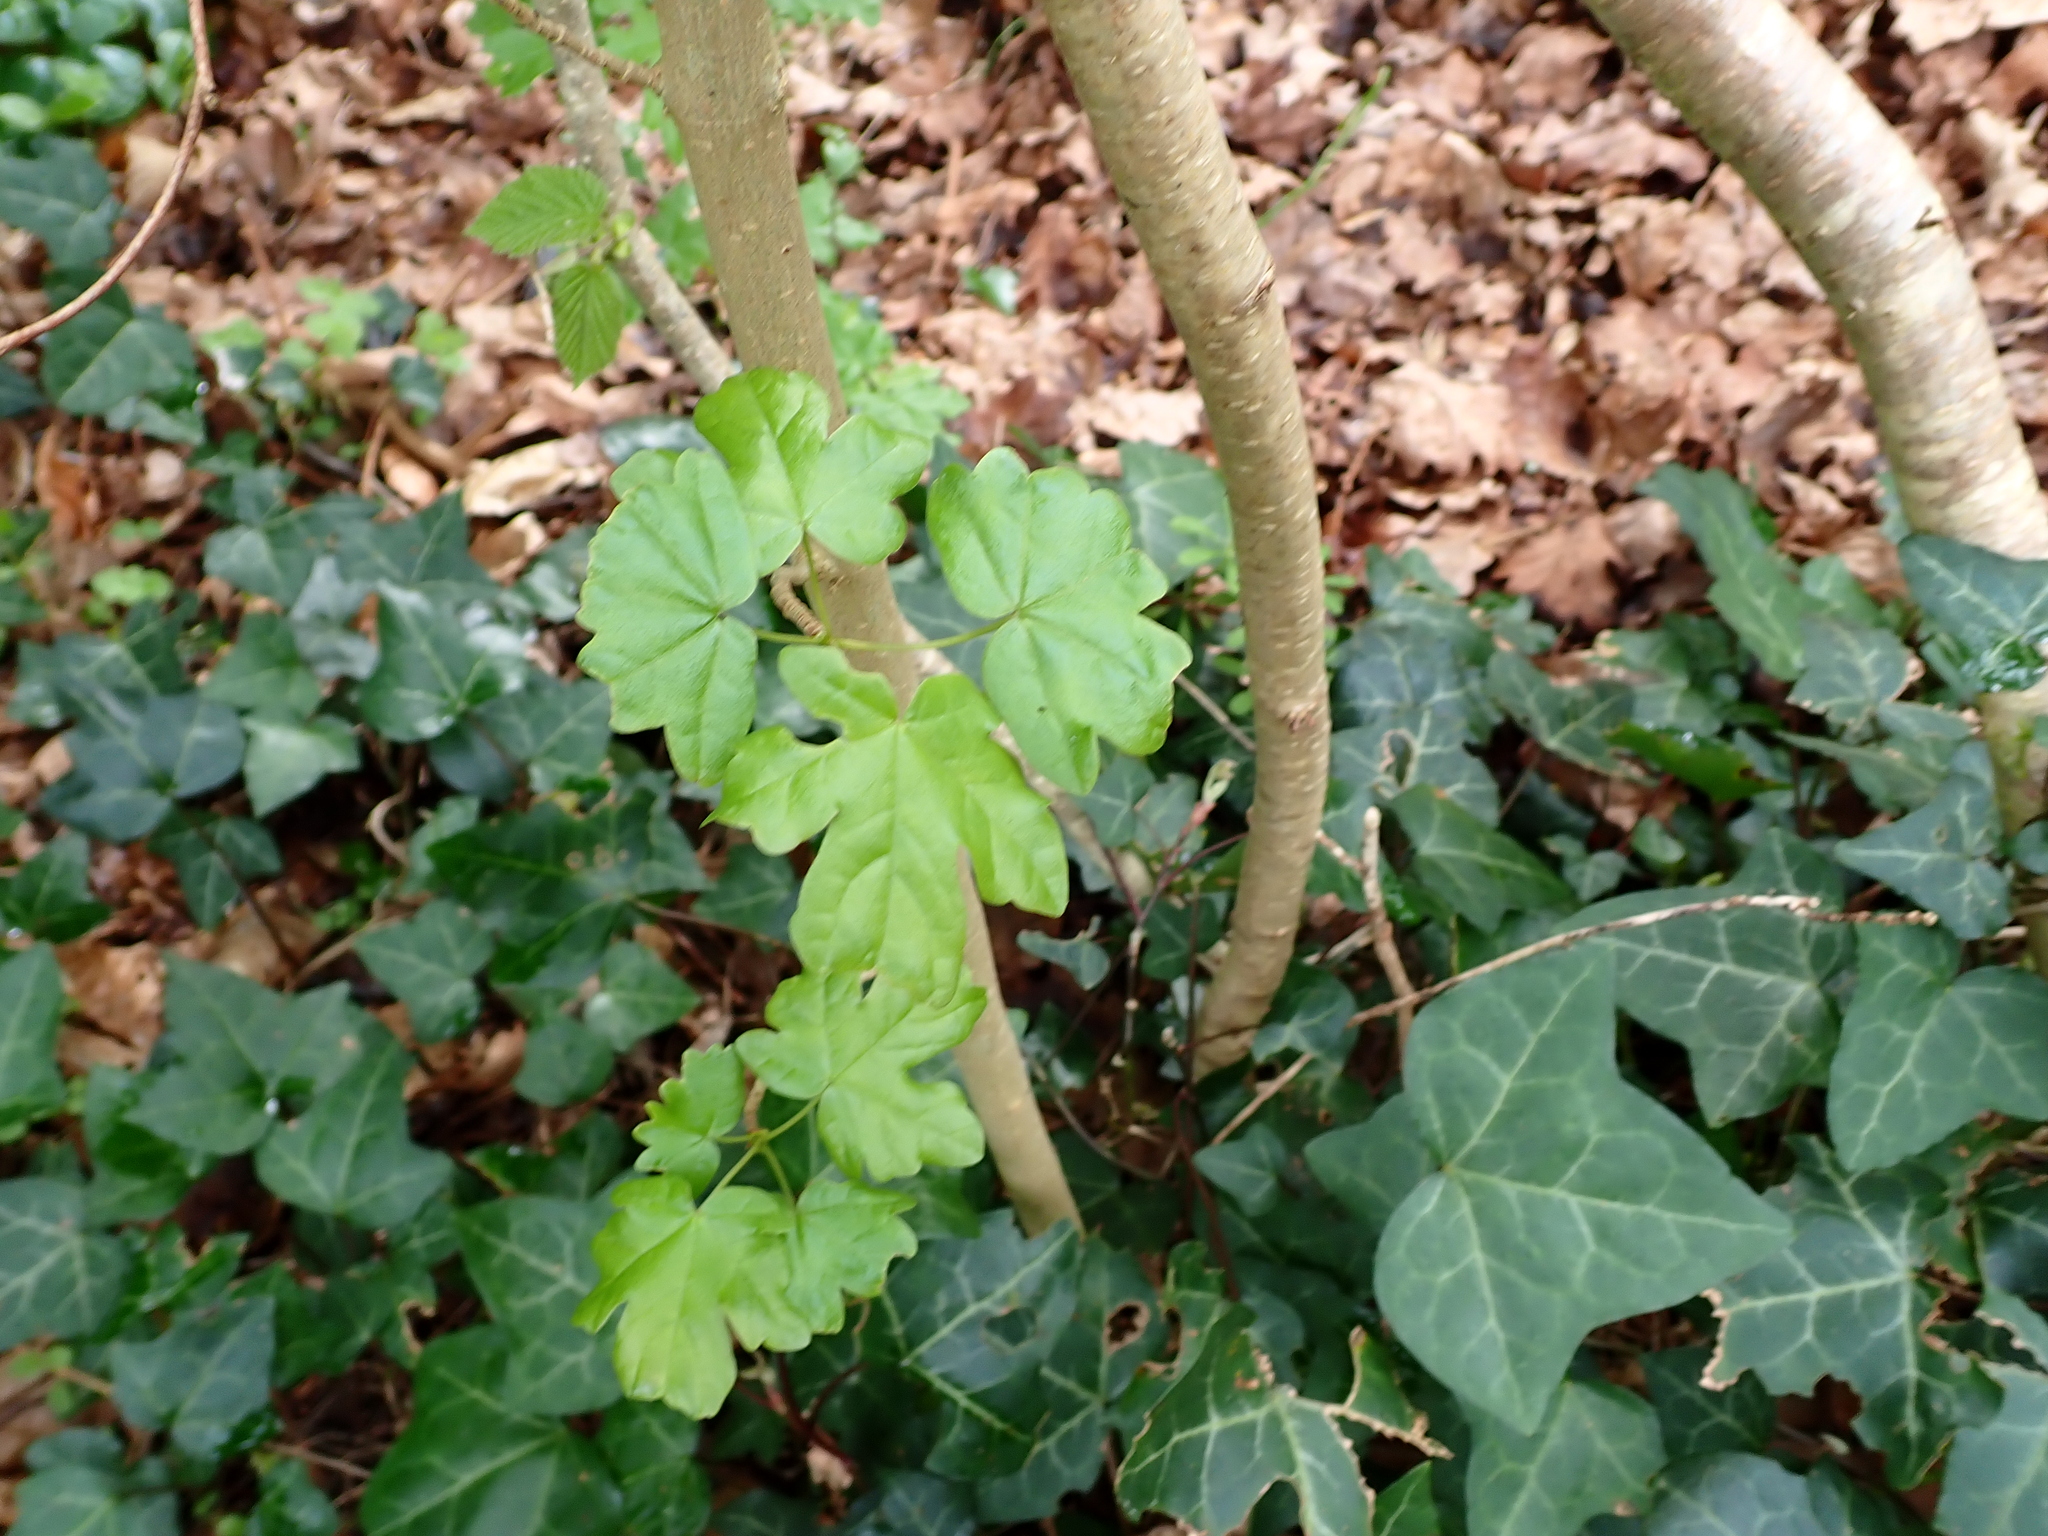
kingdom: Plantae
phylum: Tracheophyta
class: Magnoliopsida
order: Sapindales
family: Sapindaceae
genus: Acer
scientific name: Acer campestre
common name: Field maple
